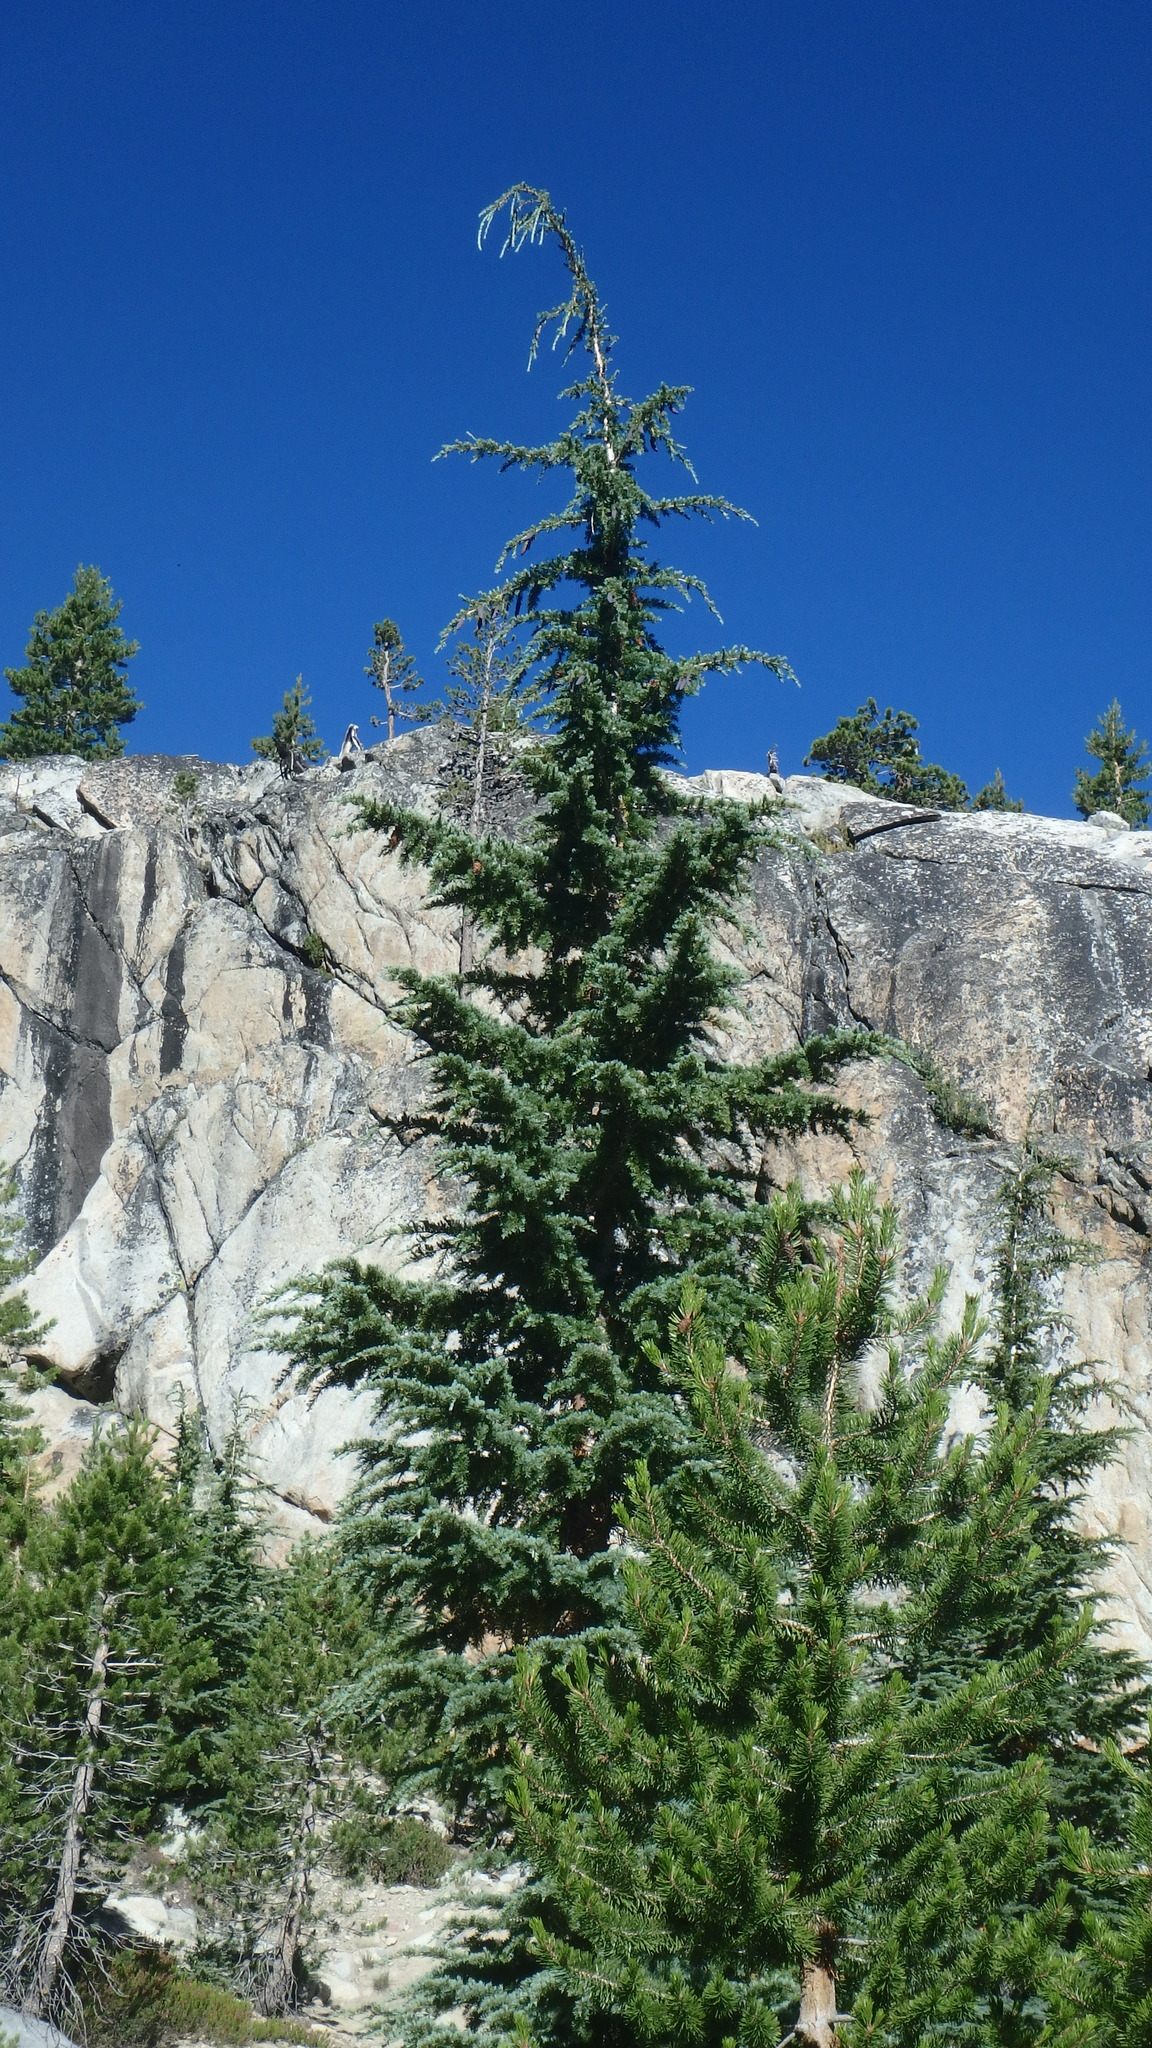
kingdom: Plantae
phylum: Tracheophyta
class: Pinopsida
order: Pinales
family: Pinaceae
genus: Tsuga
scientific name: Tsuga mertensiana
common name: Mountain hemlock
